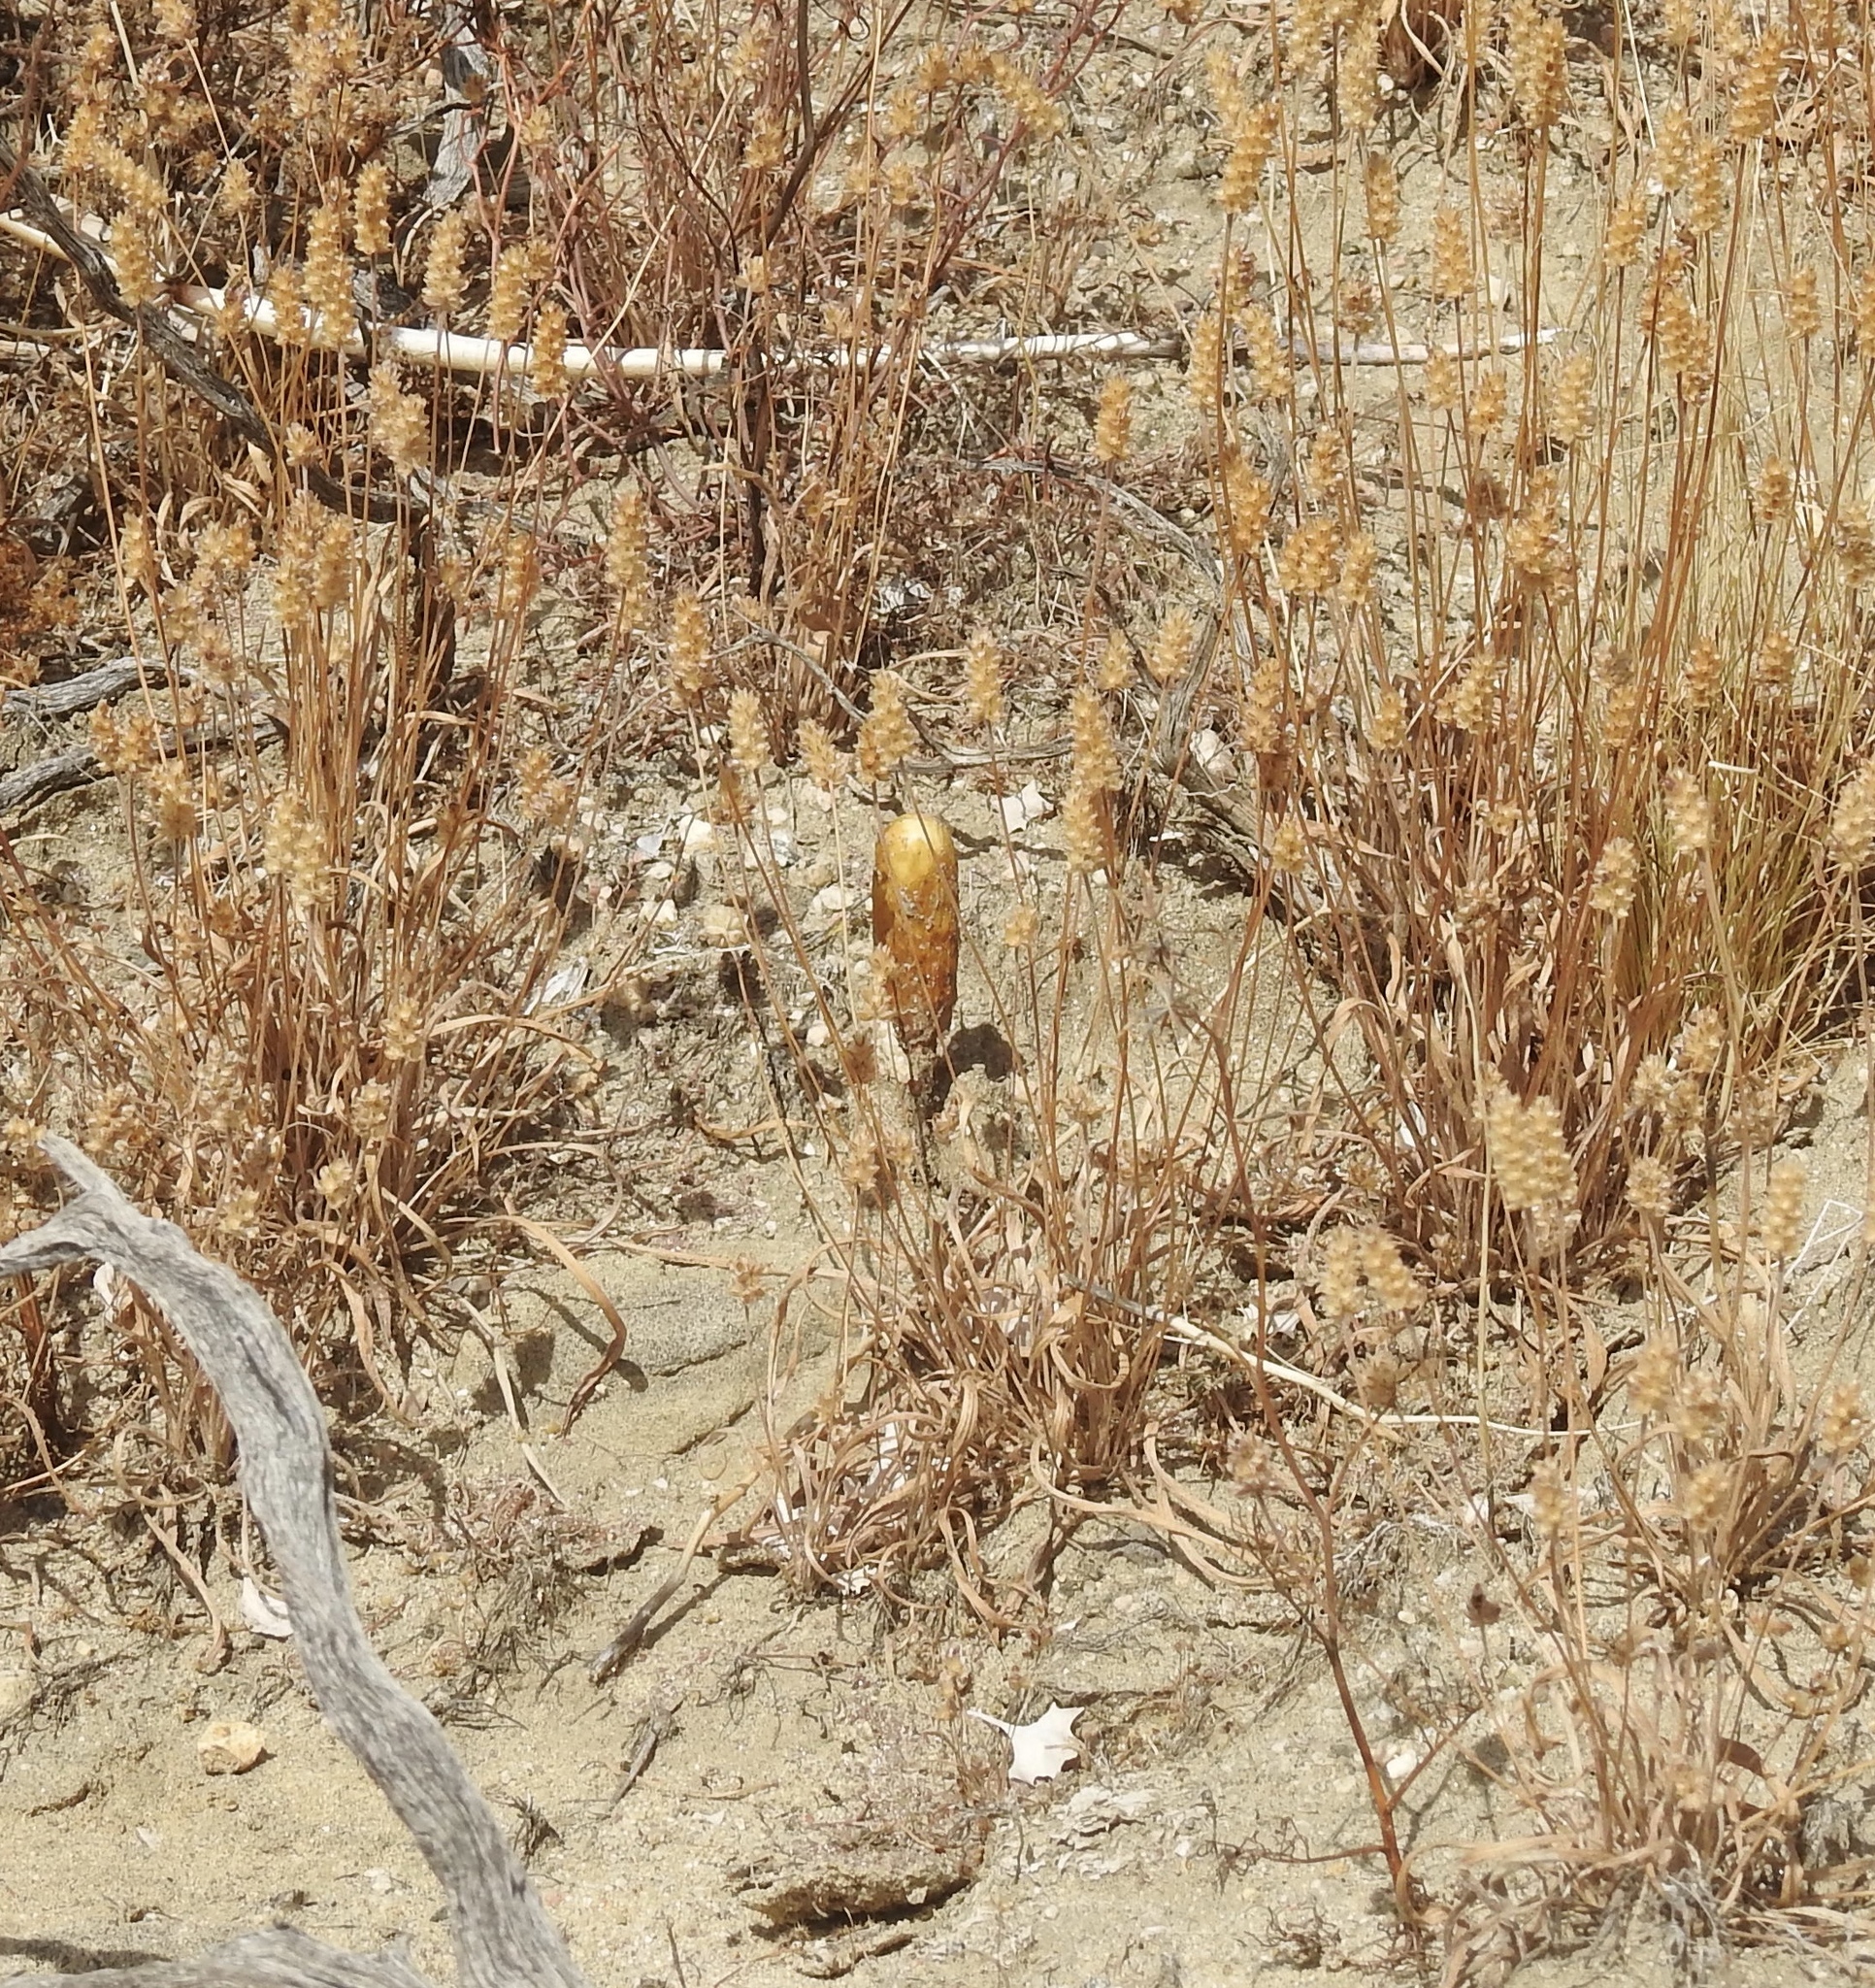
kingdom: Fungi
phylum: Basidiomycota
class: Agaricomycetes
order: Agaricales
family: Agaricaceae
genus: Podaxis
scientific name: Podaxis pistillaris
